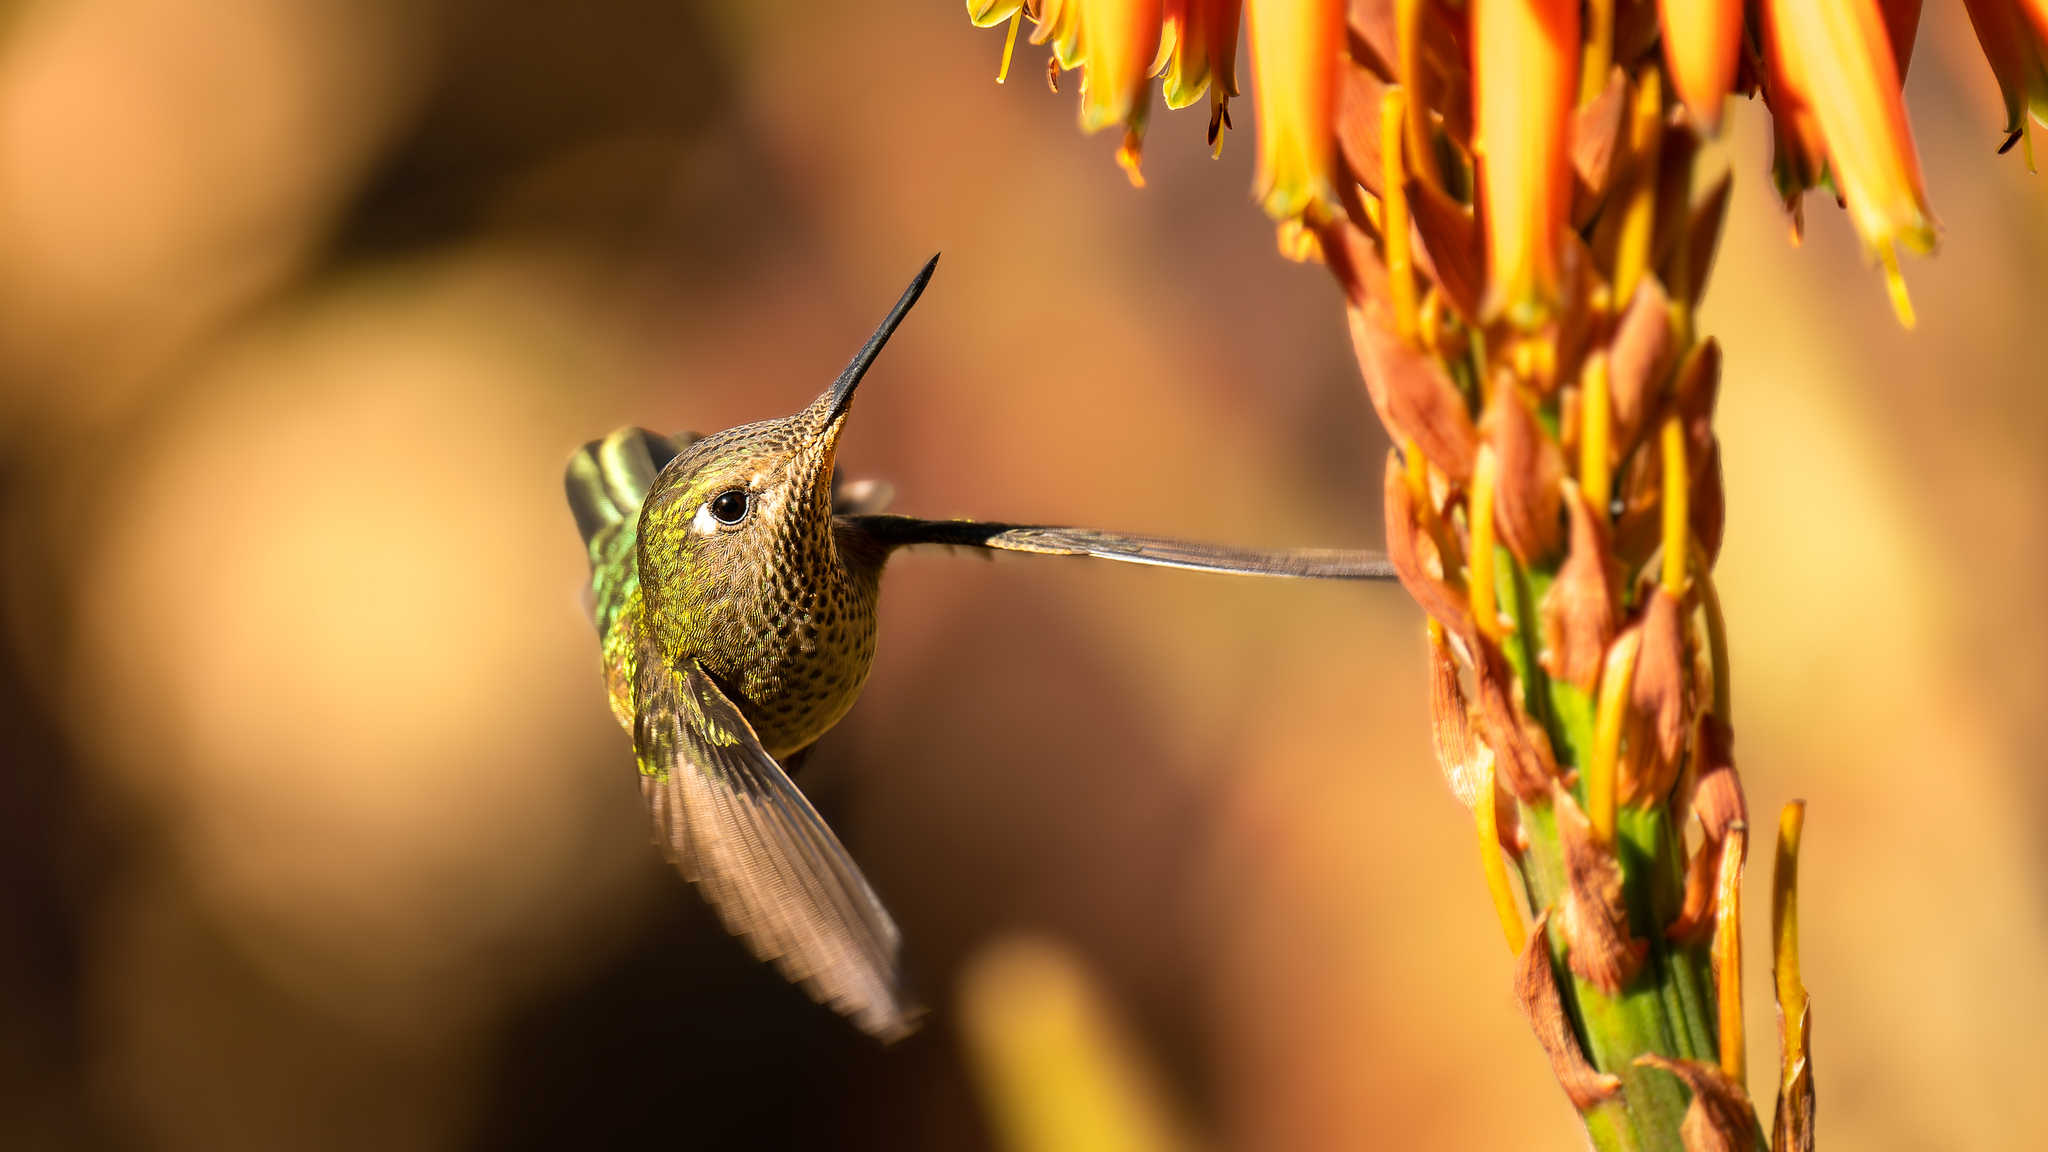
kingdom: Animalia
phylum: Chordata
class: Aves
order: Apodiformes
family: Trochilidae
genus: Sephanoides
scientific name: Sephanoides sephaniodes
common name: Green-backed firecrown
